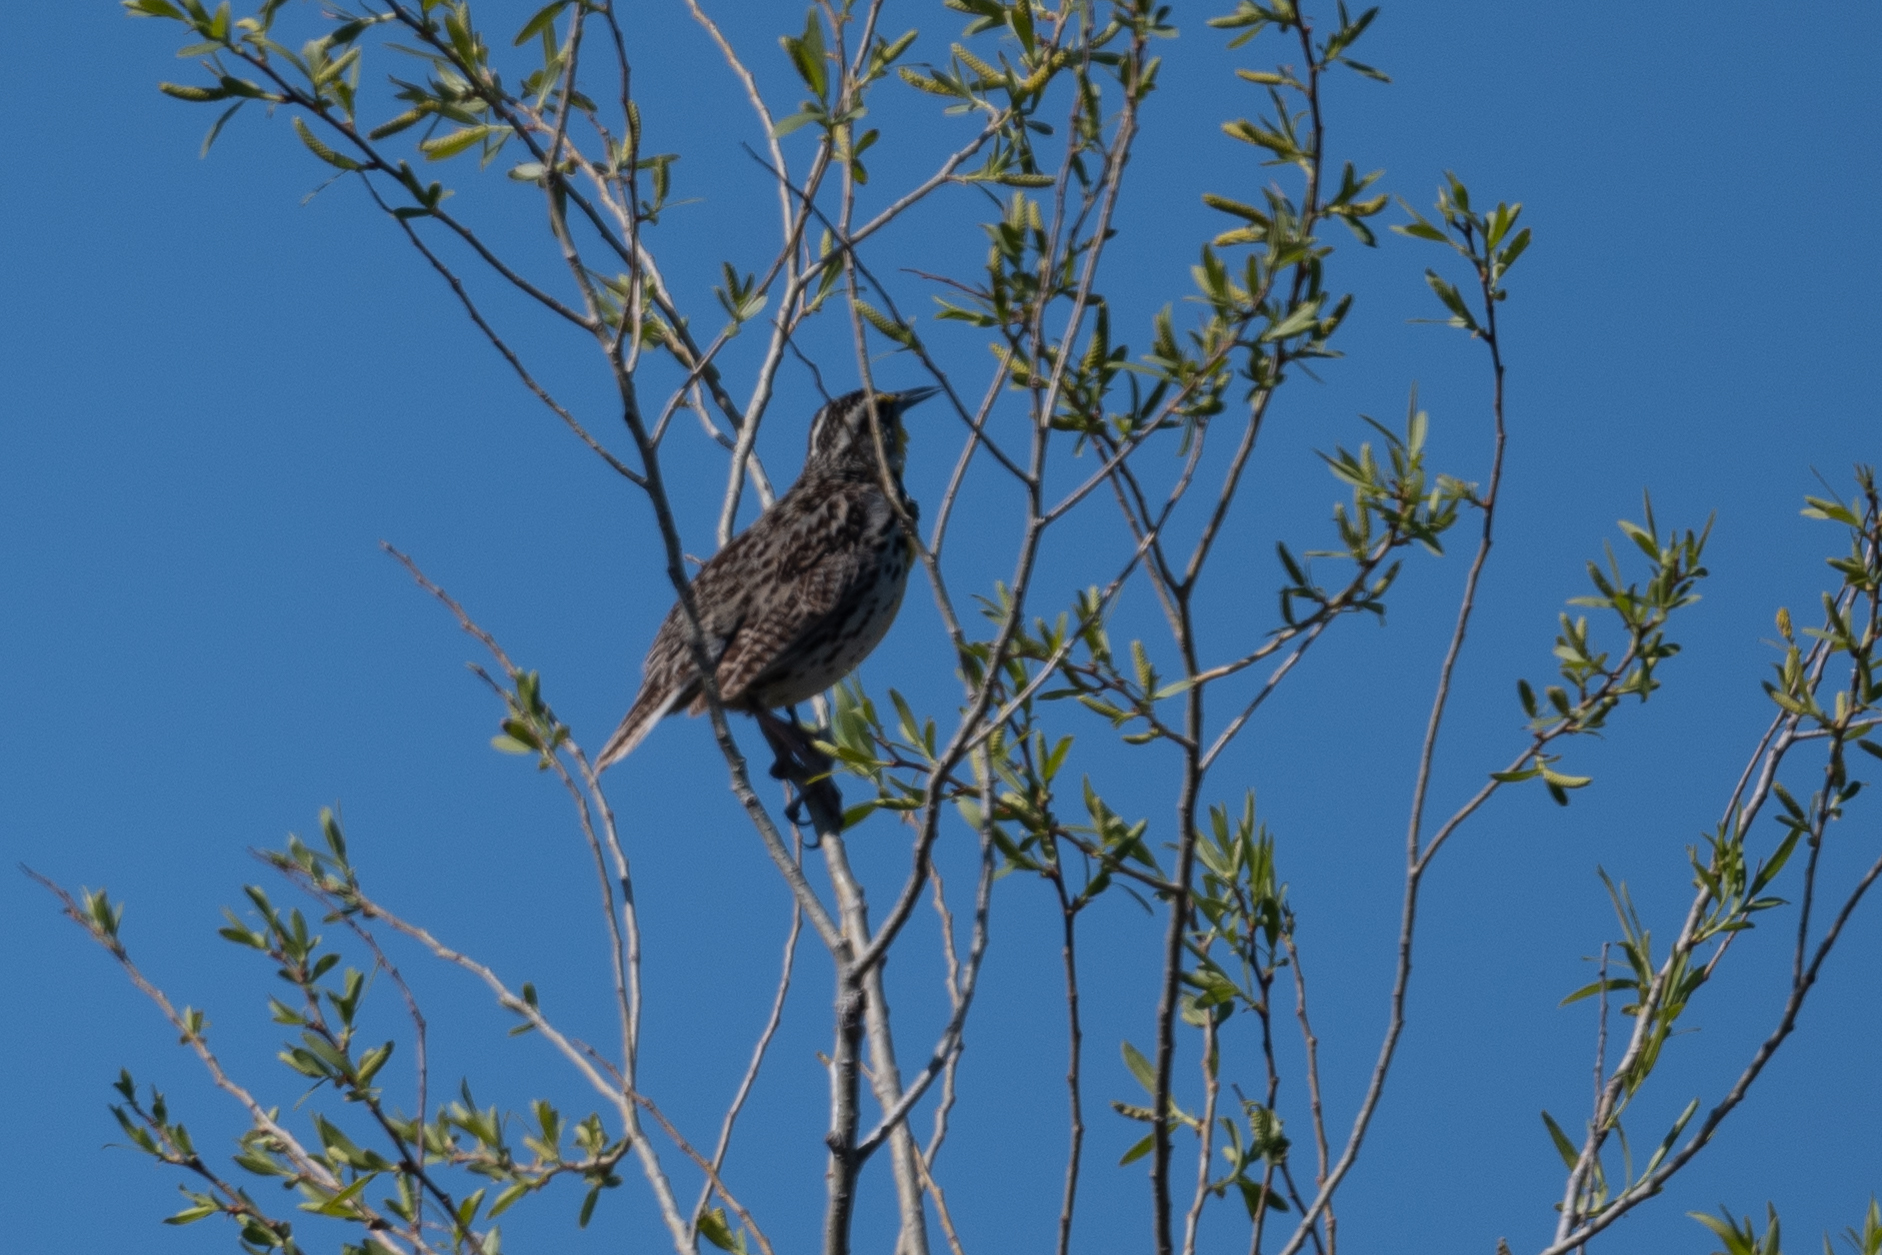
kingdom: Animalia
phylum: Chordata
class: Aves
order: Passeriformes
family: Icteridae
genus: Sturnella
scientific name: Sturnella neglecta
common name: Western meadowlark
